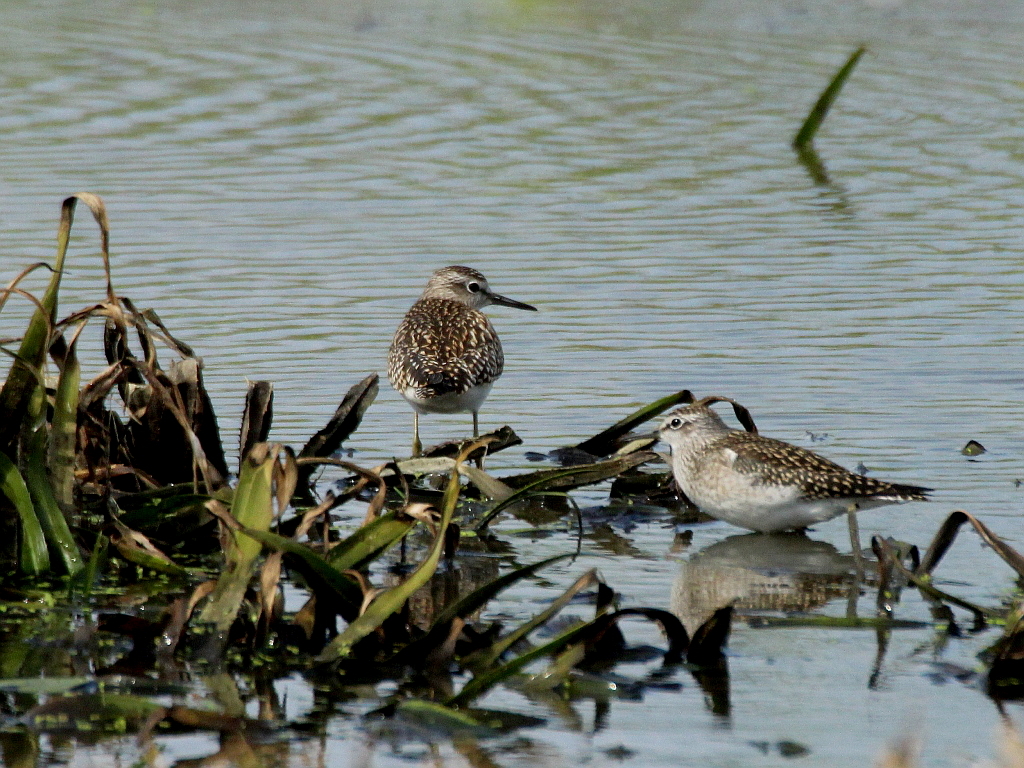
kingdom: Animalia
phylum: Chordata
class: Aves
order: Charadriiformes
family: Scolopacidae
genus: Tringa
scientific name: Tringa glareola
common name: Wood sandpiper
